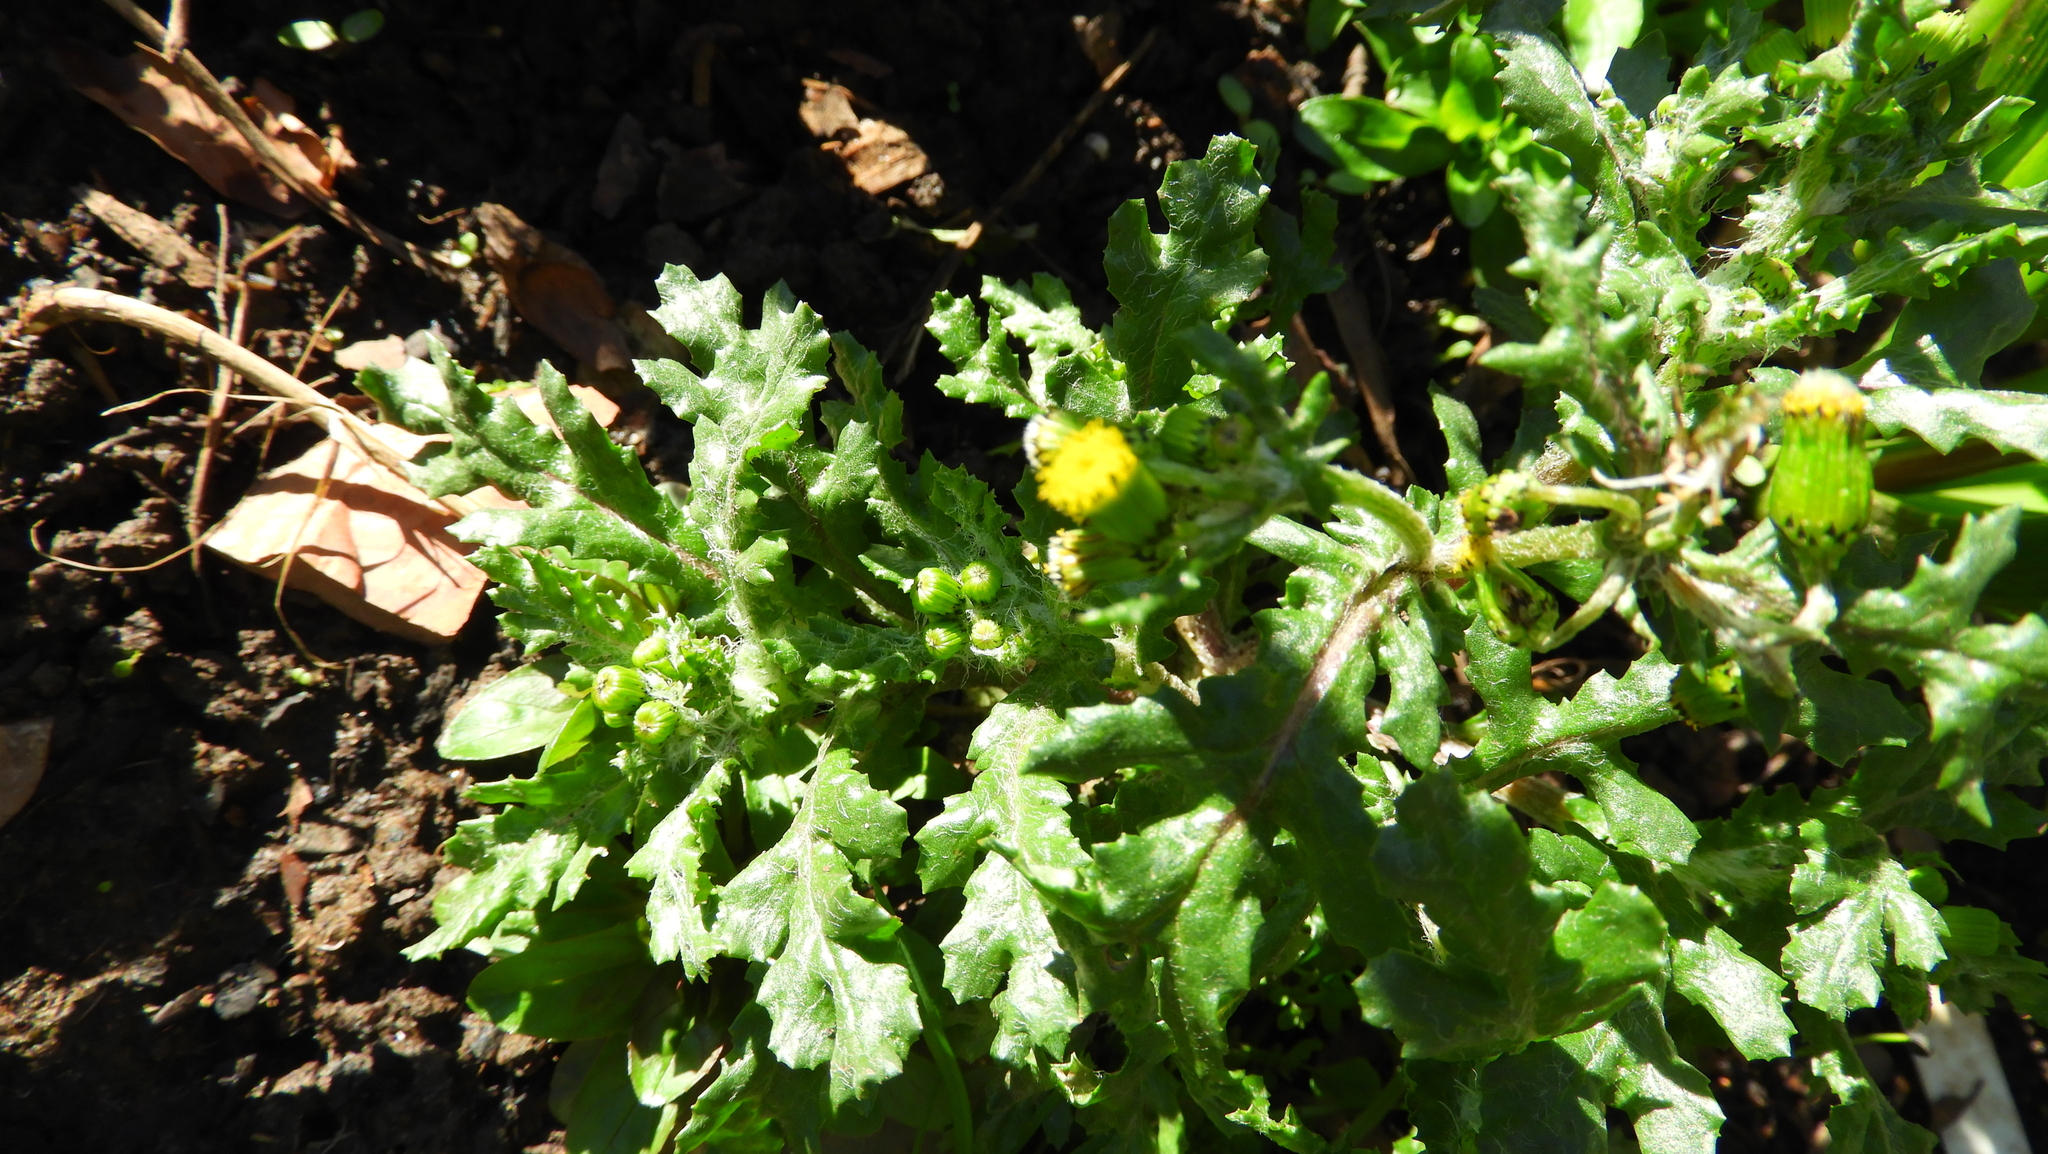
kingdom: Plantae
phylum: Tracheophyta
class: Magnoliopsida
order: Asterales
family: Asteraceae
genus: Senecio
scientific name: Senecio vulgaris
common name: Old-man-in-the-spring
